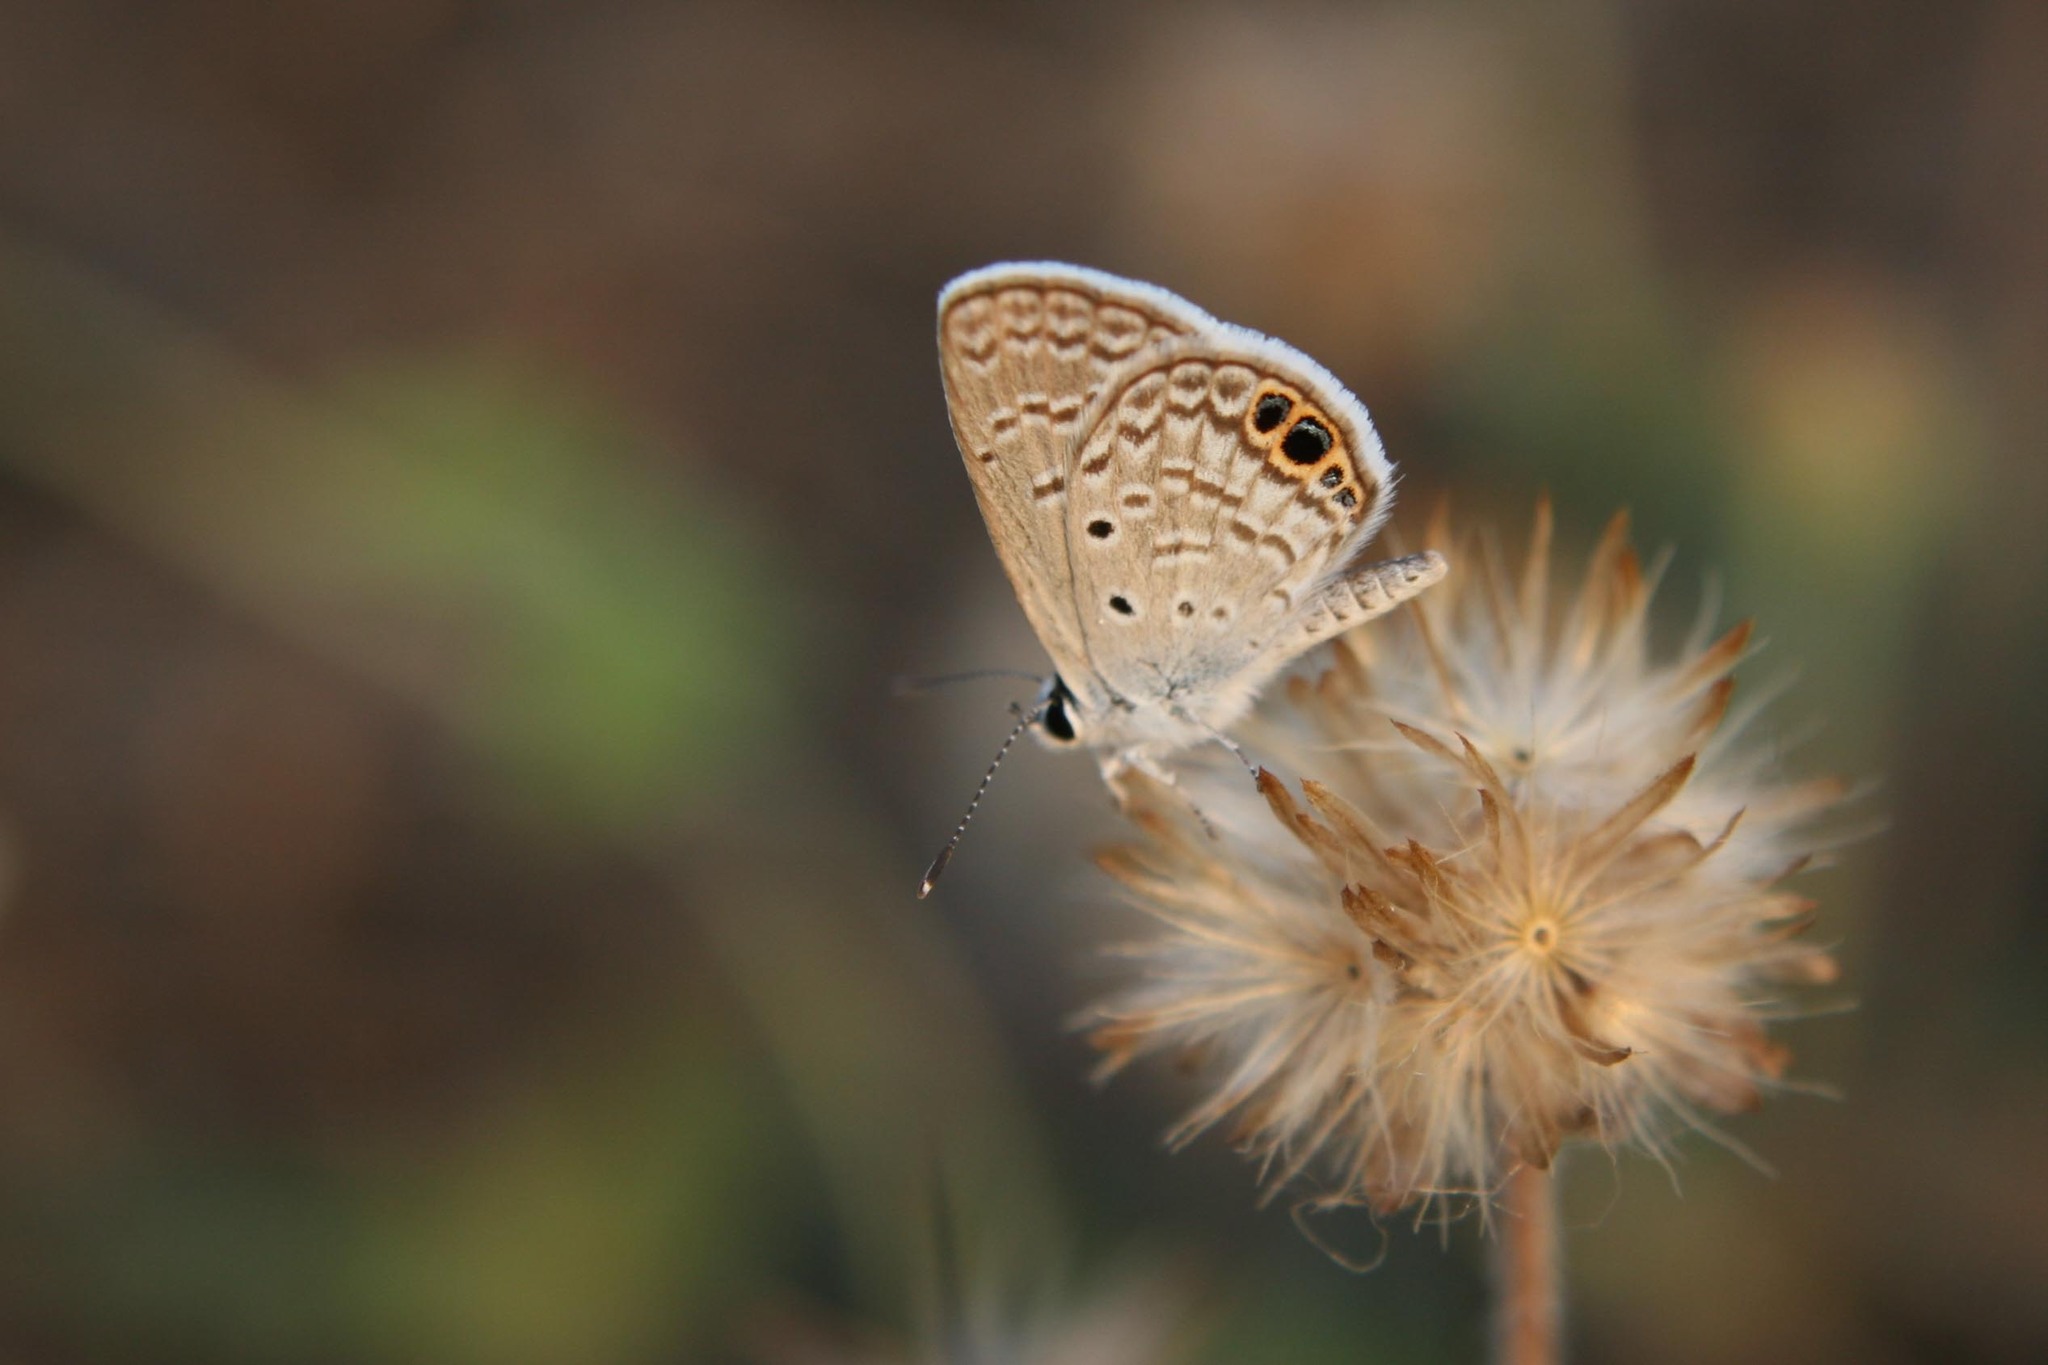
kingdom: Animalia
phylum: Arthropoda
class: Insecta
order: Lepidoptera
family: Lycaenidae
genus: Hemiargus
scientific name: Hemiargus ceraunus
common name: Ceraunus blue
